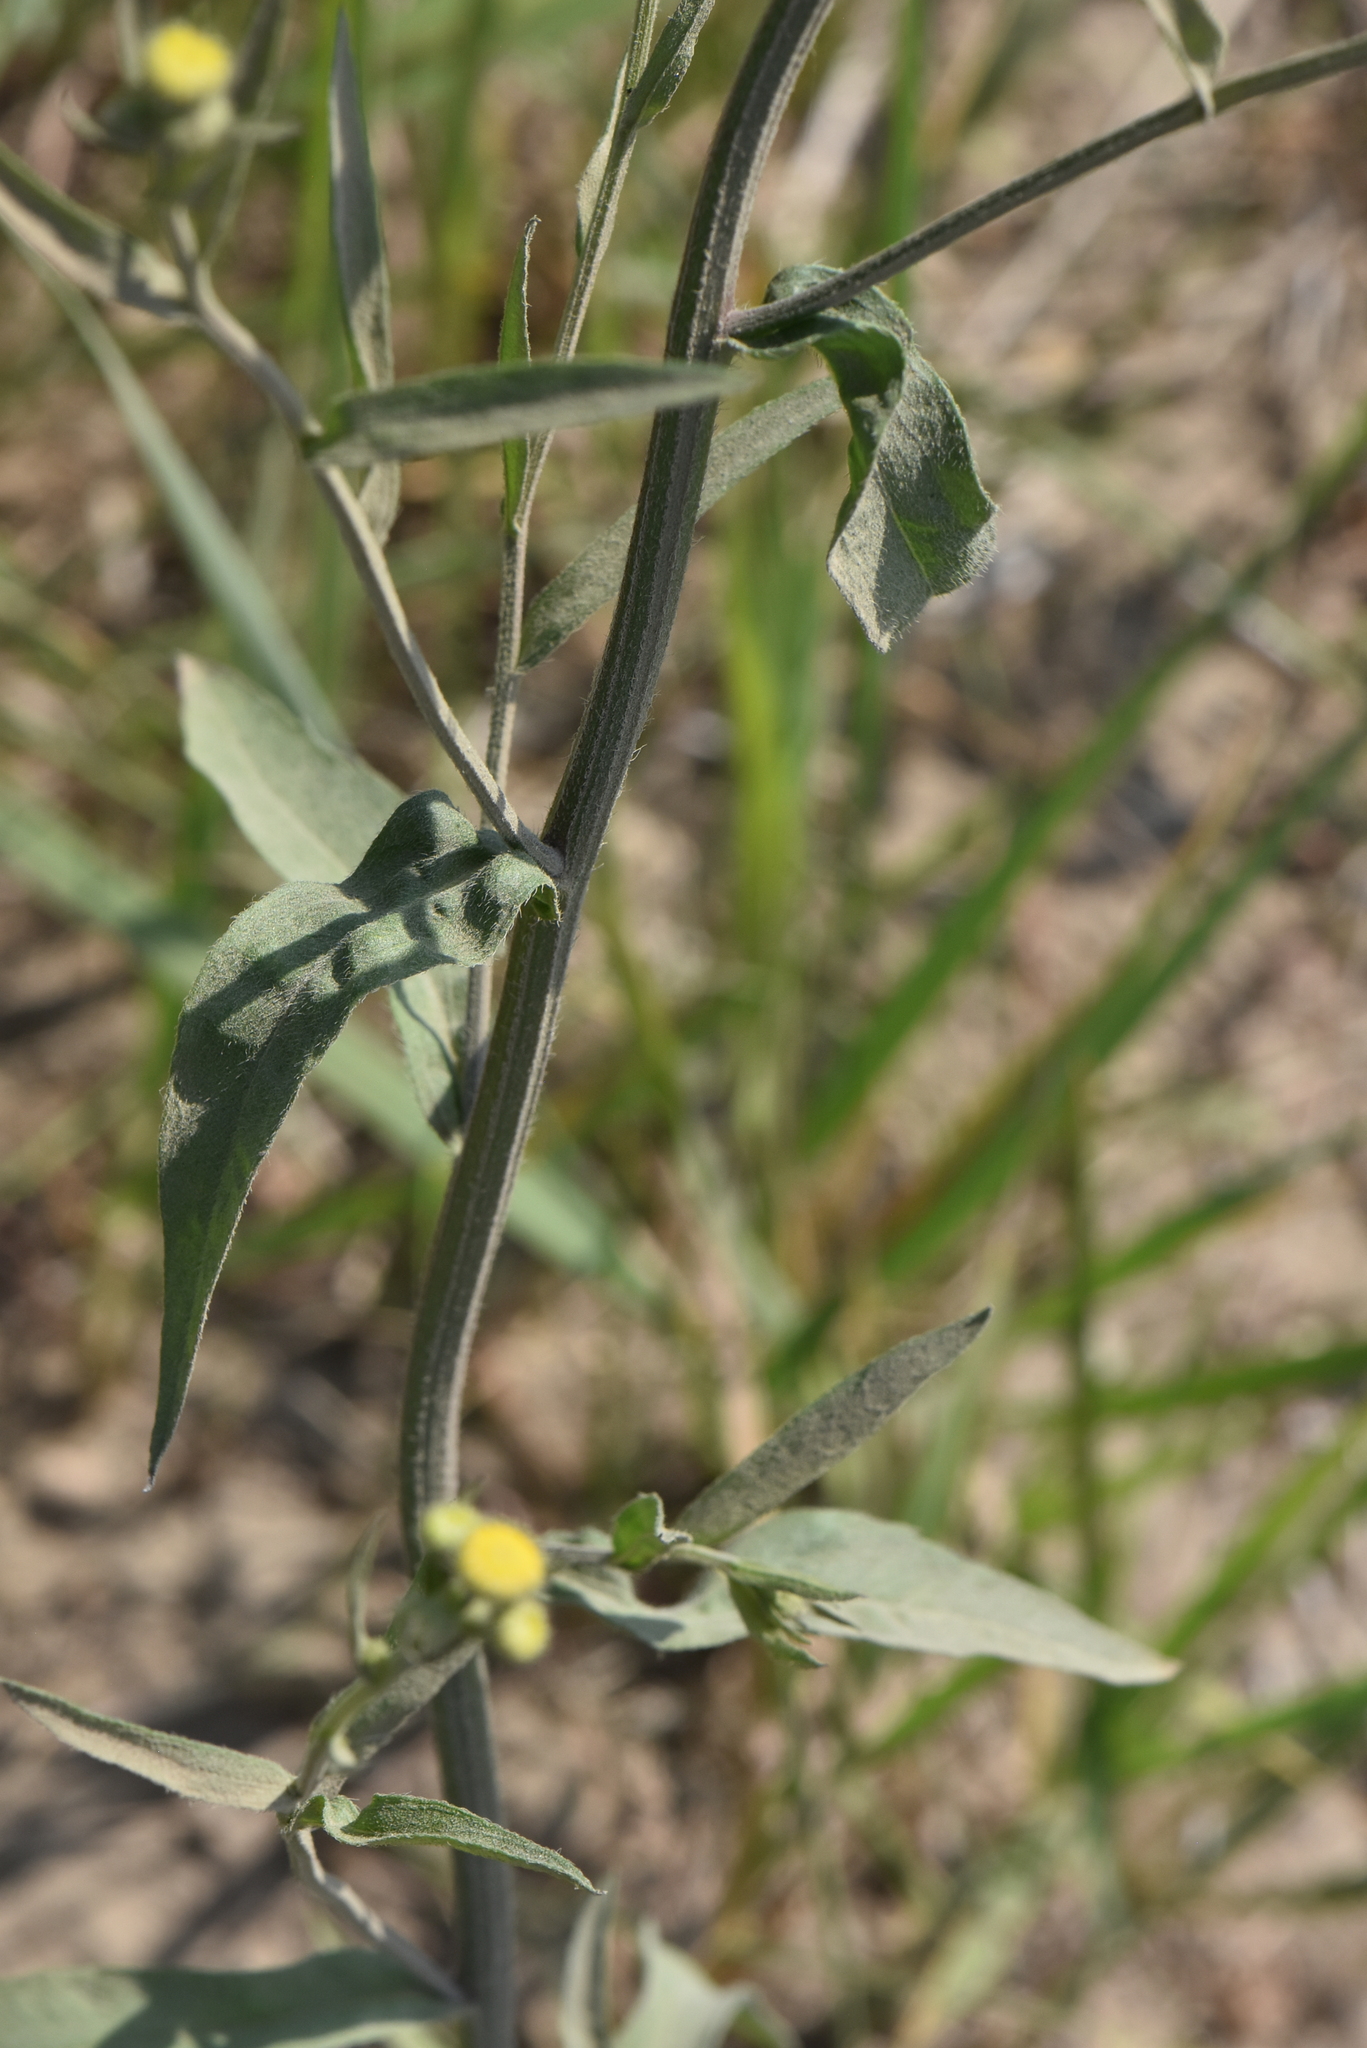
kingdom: Plantae
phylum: Tracheophyta
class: Magnoliopsida
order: Asterales
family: Asteraceae
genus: Erigeron
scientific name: Erigeron strigosus
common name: Common eastern fleabane
